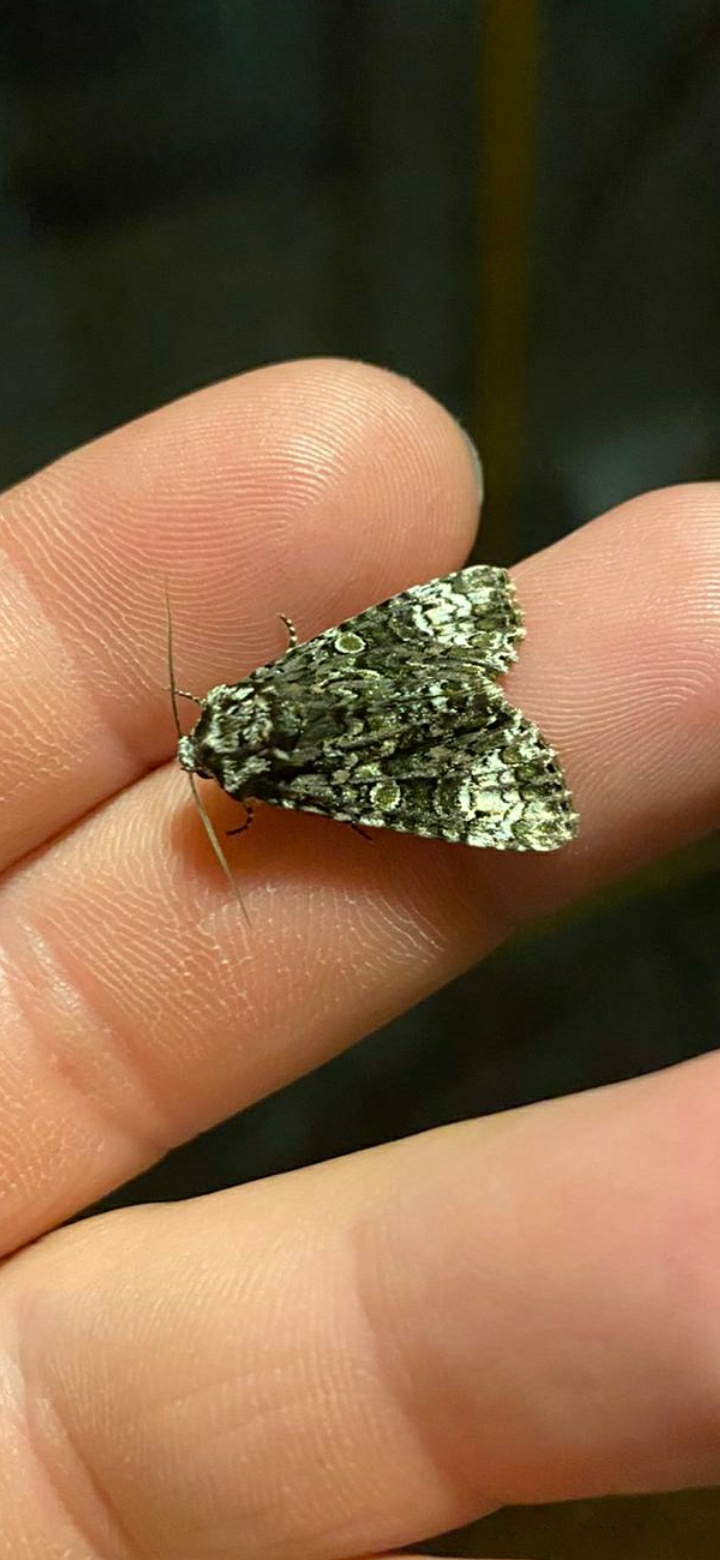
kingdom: Animalia
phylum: Arthropoda
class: Insecta
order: Lepidoptera
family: Noctuidae
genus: Craniophora
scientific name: Craniophora ligustri
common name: Coronet
